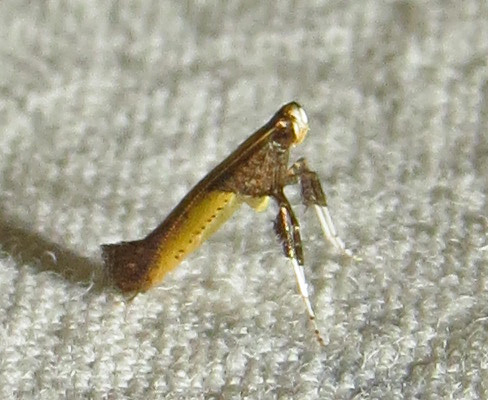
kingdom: Animalia
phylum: Arthropoda
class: Insecta
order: Lepidoptera
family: Gracillariidae
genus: Caloptilia
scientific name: Caloptilia azaleella
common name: Azalea leafminer
